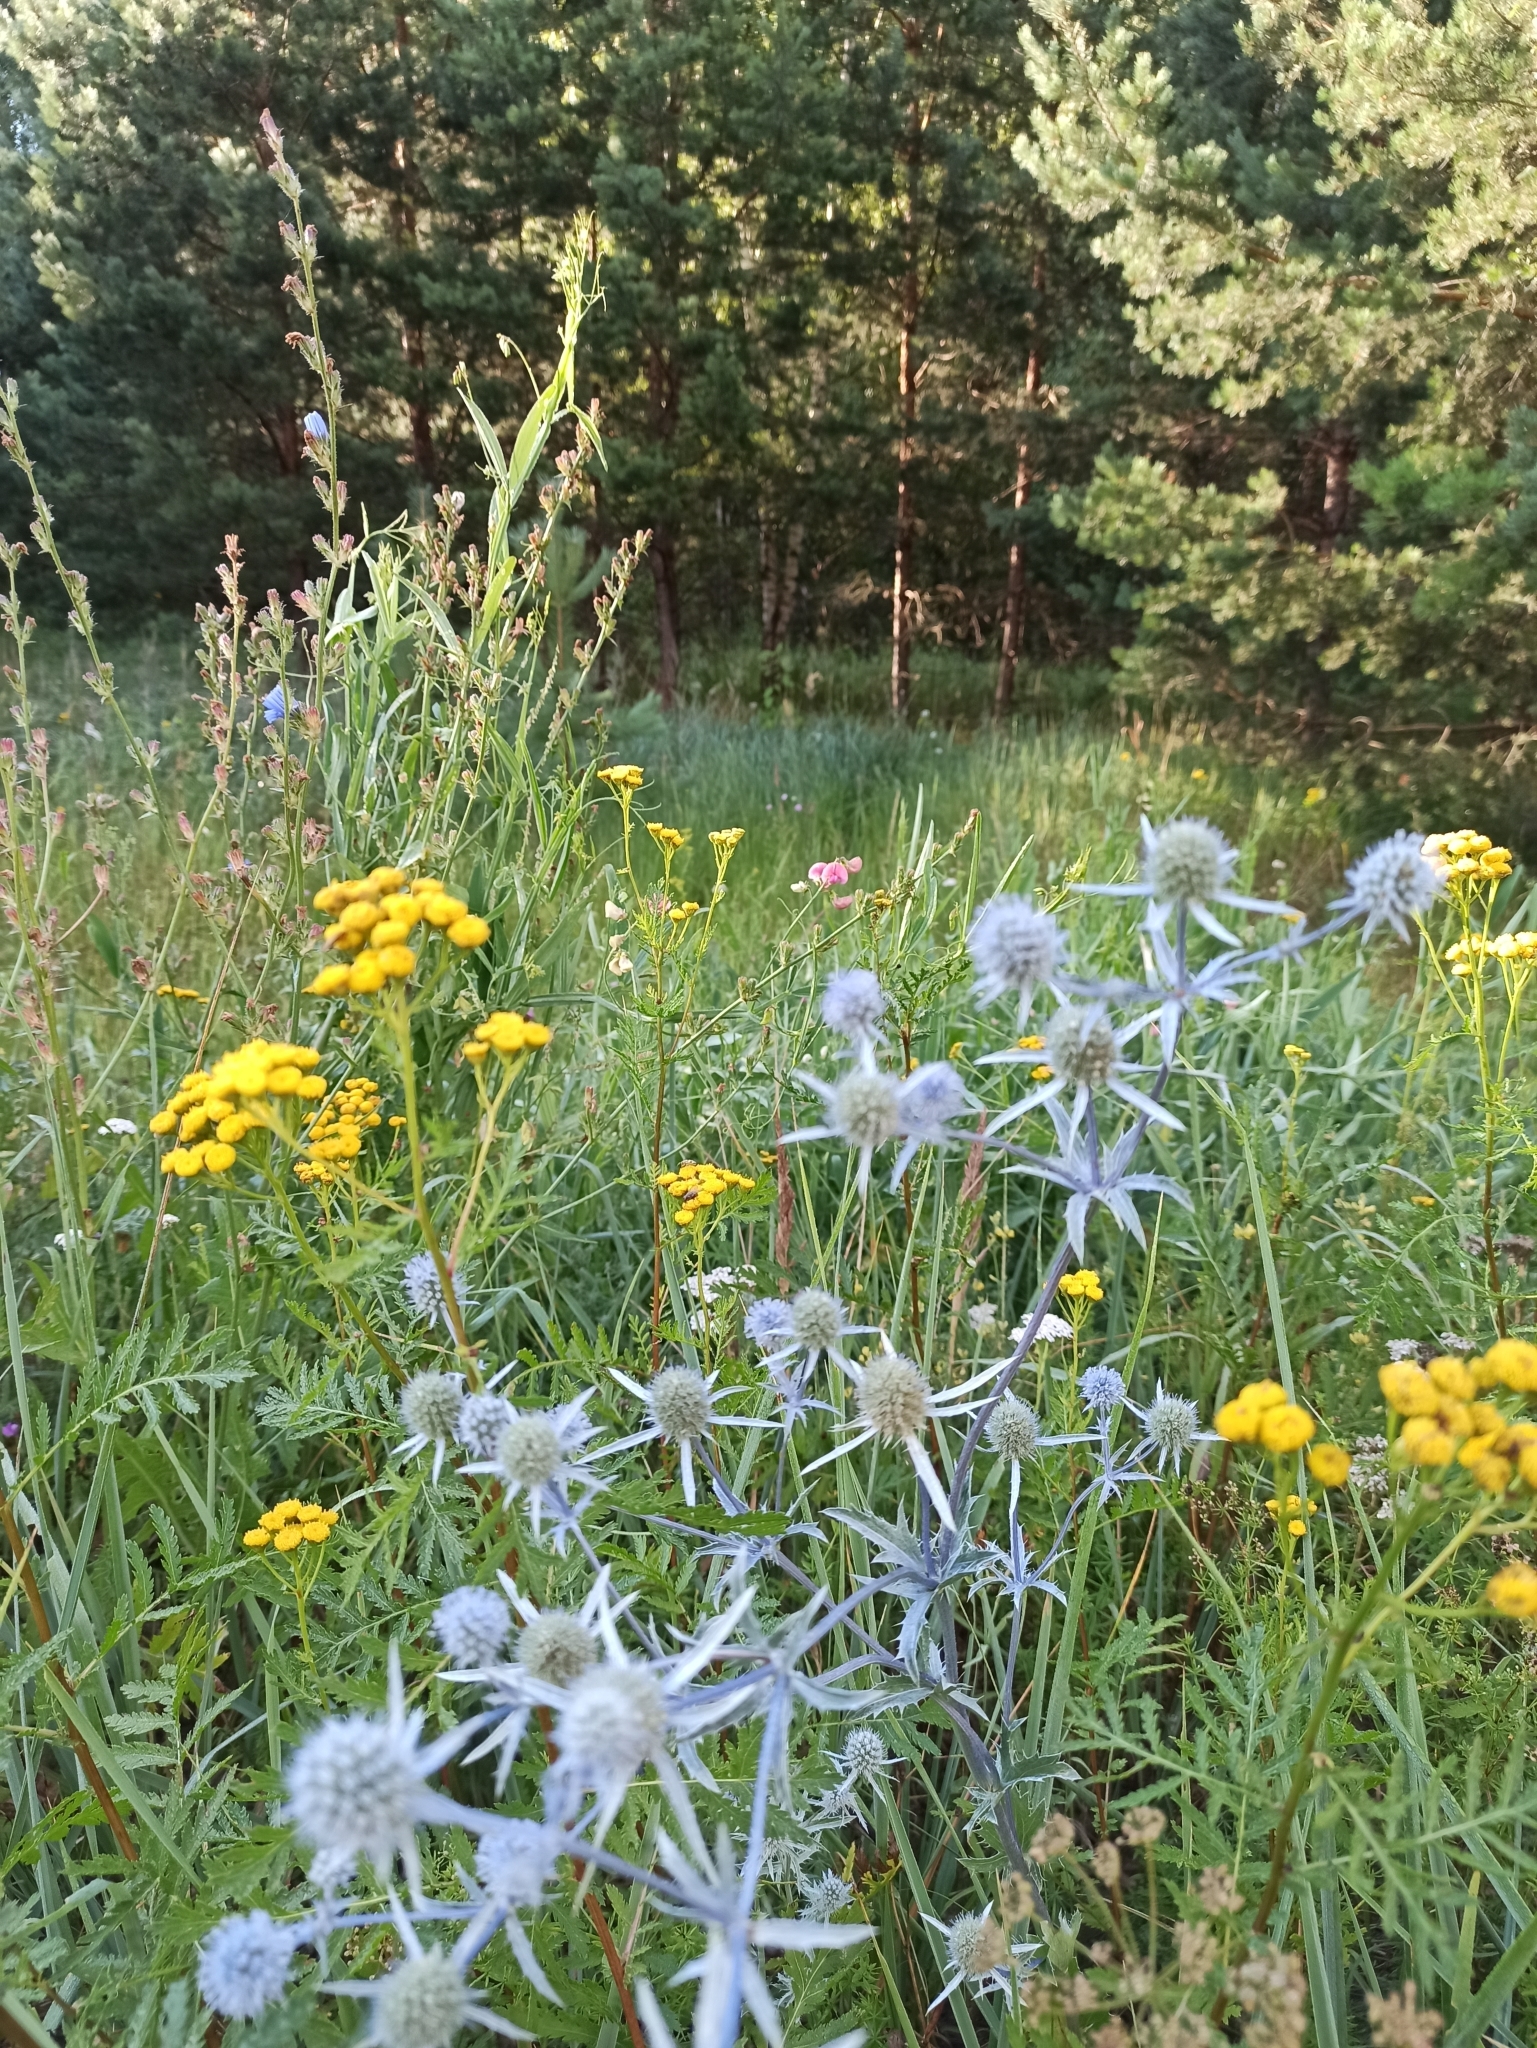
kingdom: Plantae
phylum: Tracheophyta
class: Magnoliopsida
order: Apiales
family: Apiaceae
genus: Eryngium
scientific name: Eryngium planum
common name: Blue eryngo
